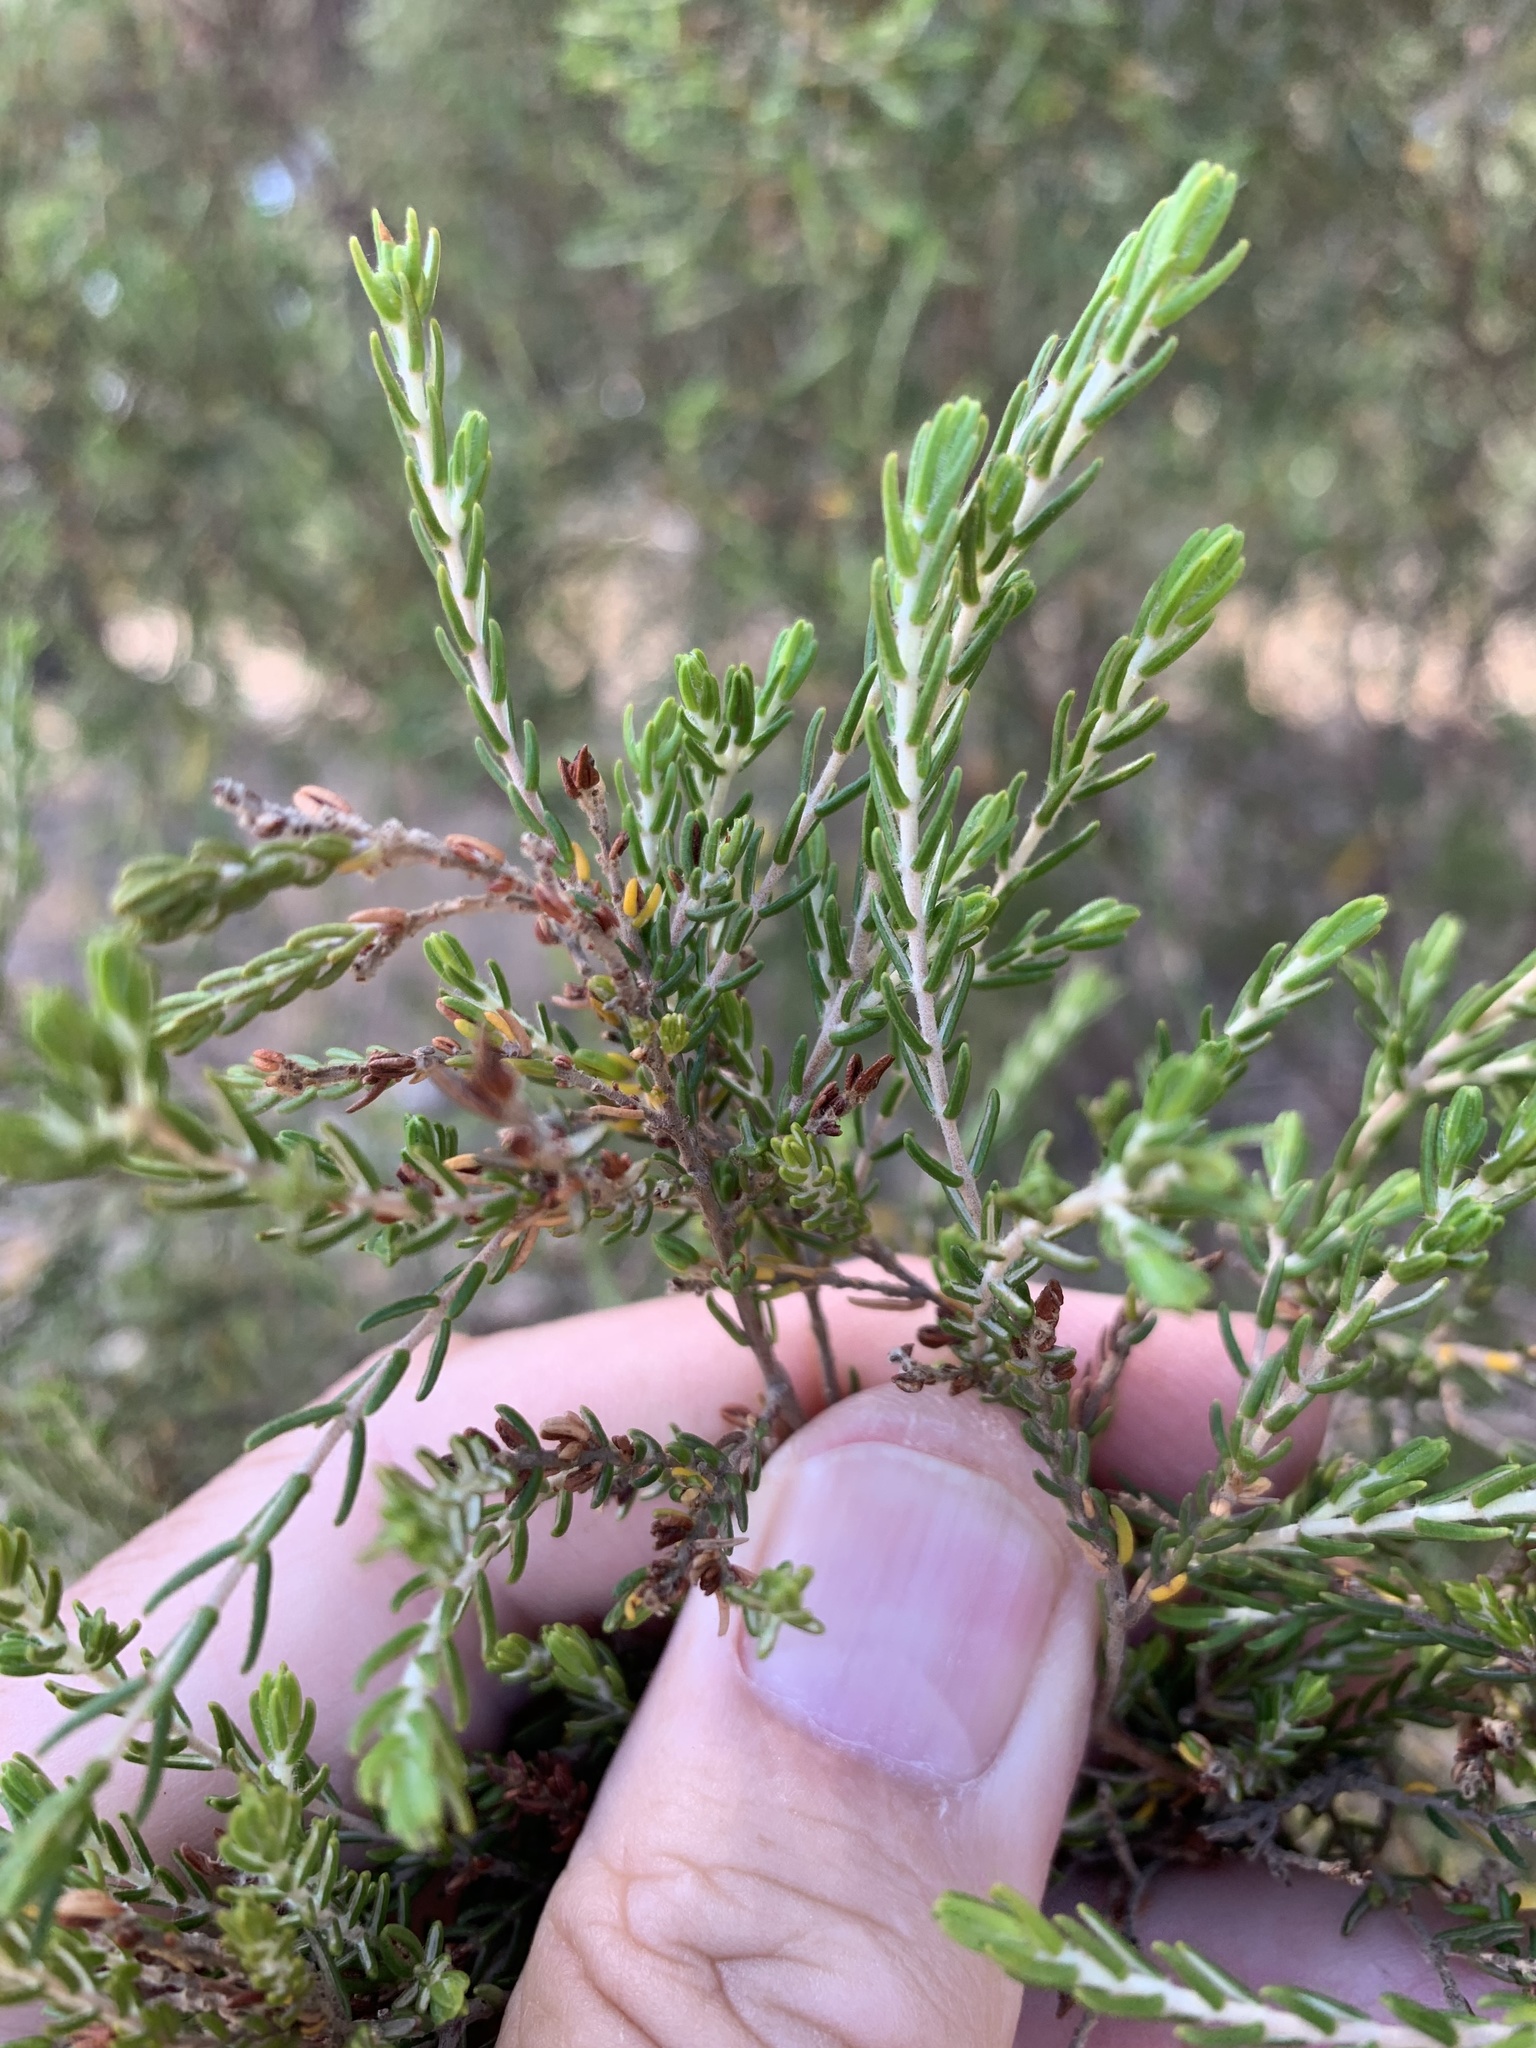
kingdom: Plantae
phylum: Tracheophyta
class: Magnoliopsida
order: Malvales
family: Thymelaeaceae
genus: Passerina
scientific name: Passerina corymbosa
